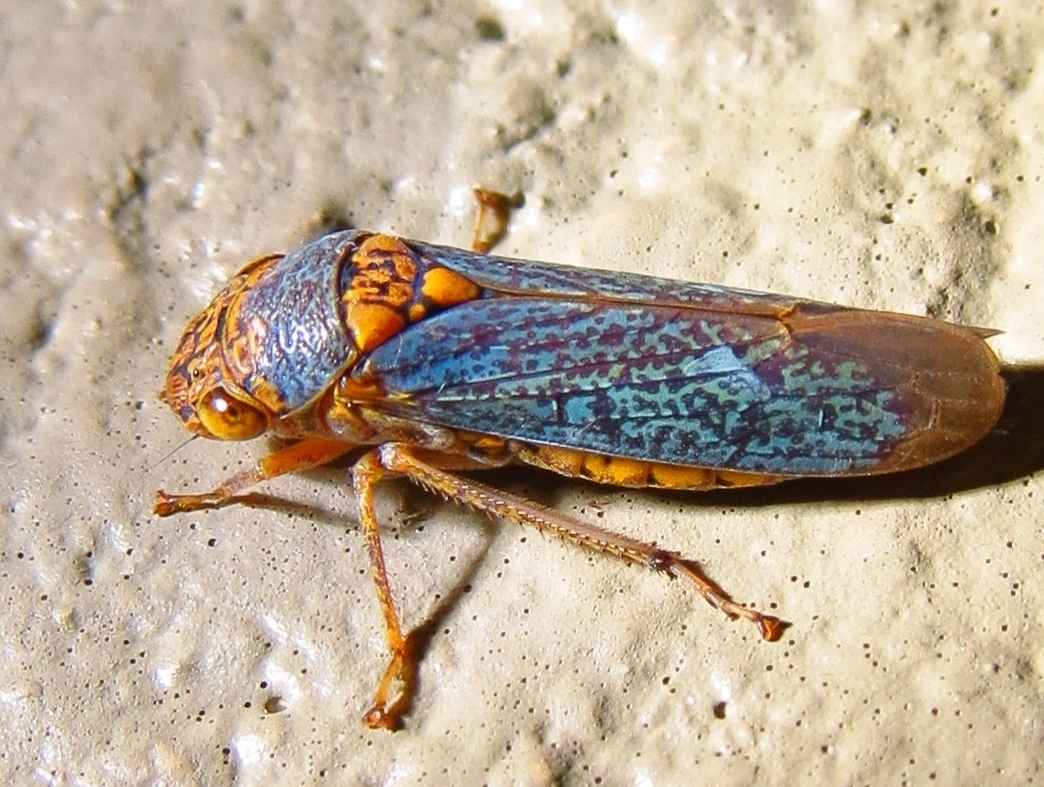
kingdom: Animalia
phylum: Arthropoda
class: Insecta
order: Hemiptera
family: Cicadellidae
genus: Oncometopia
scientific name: Oncometopia orbona
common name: Broad-headed sharpshooter
